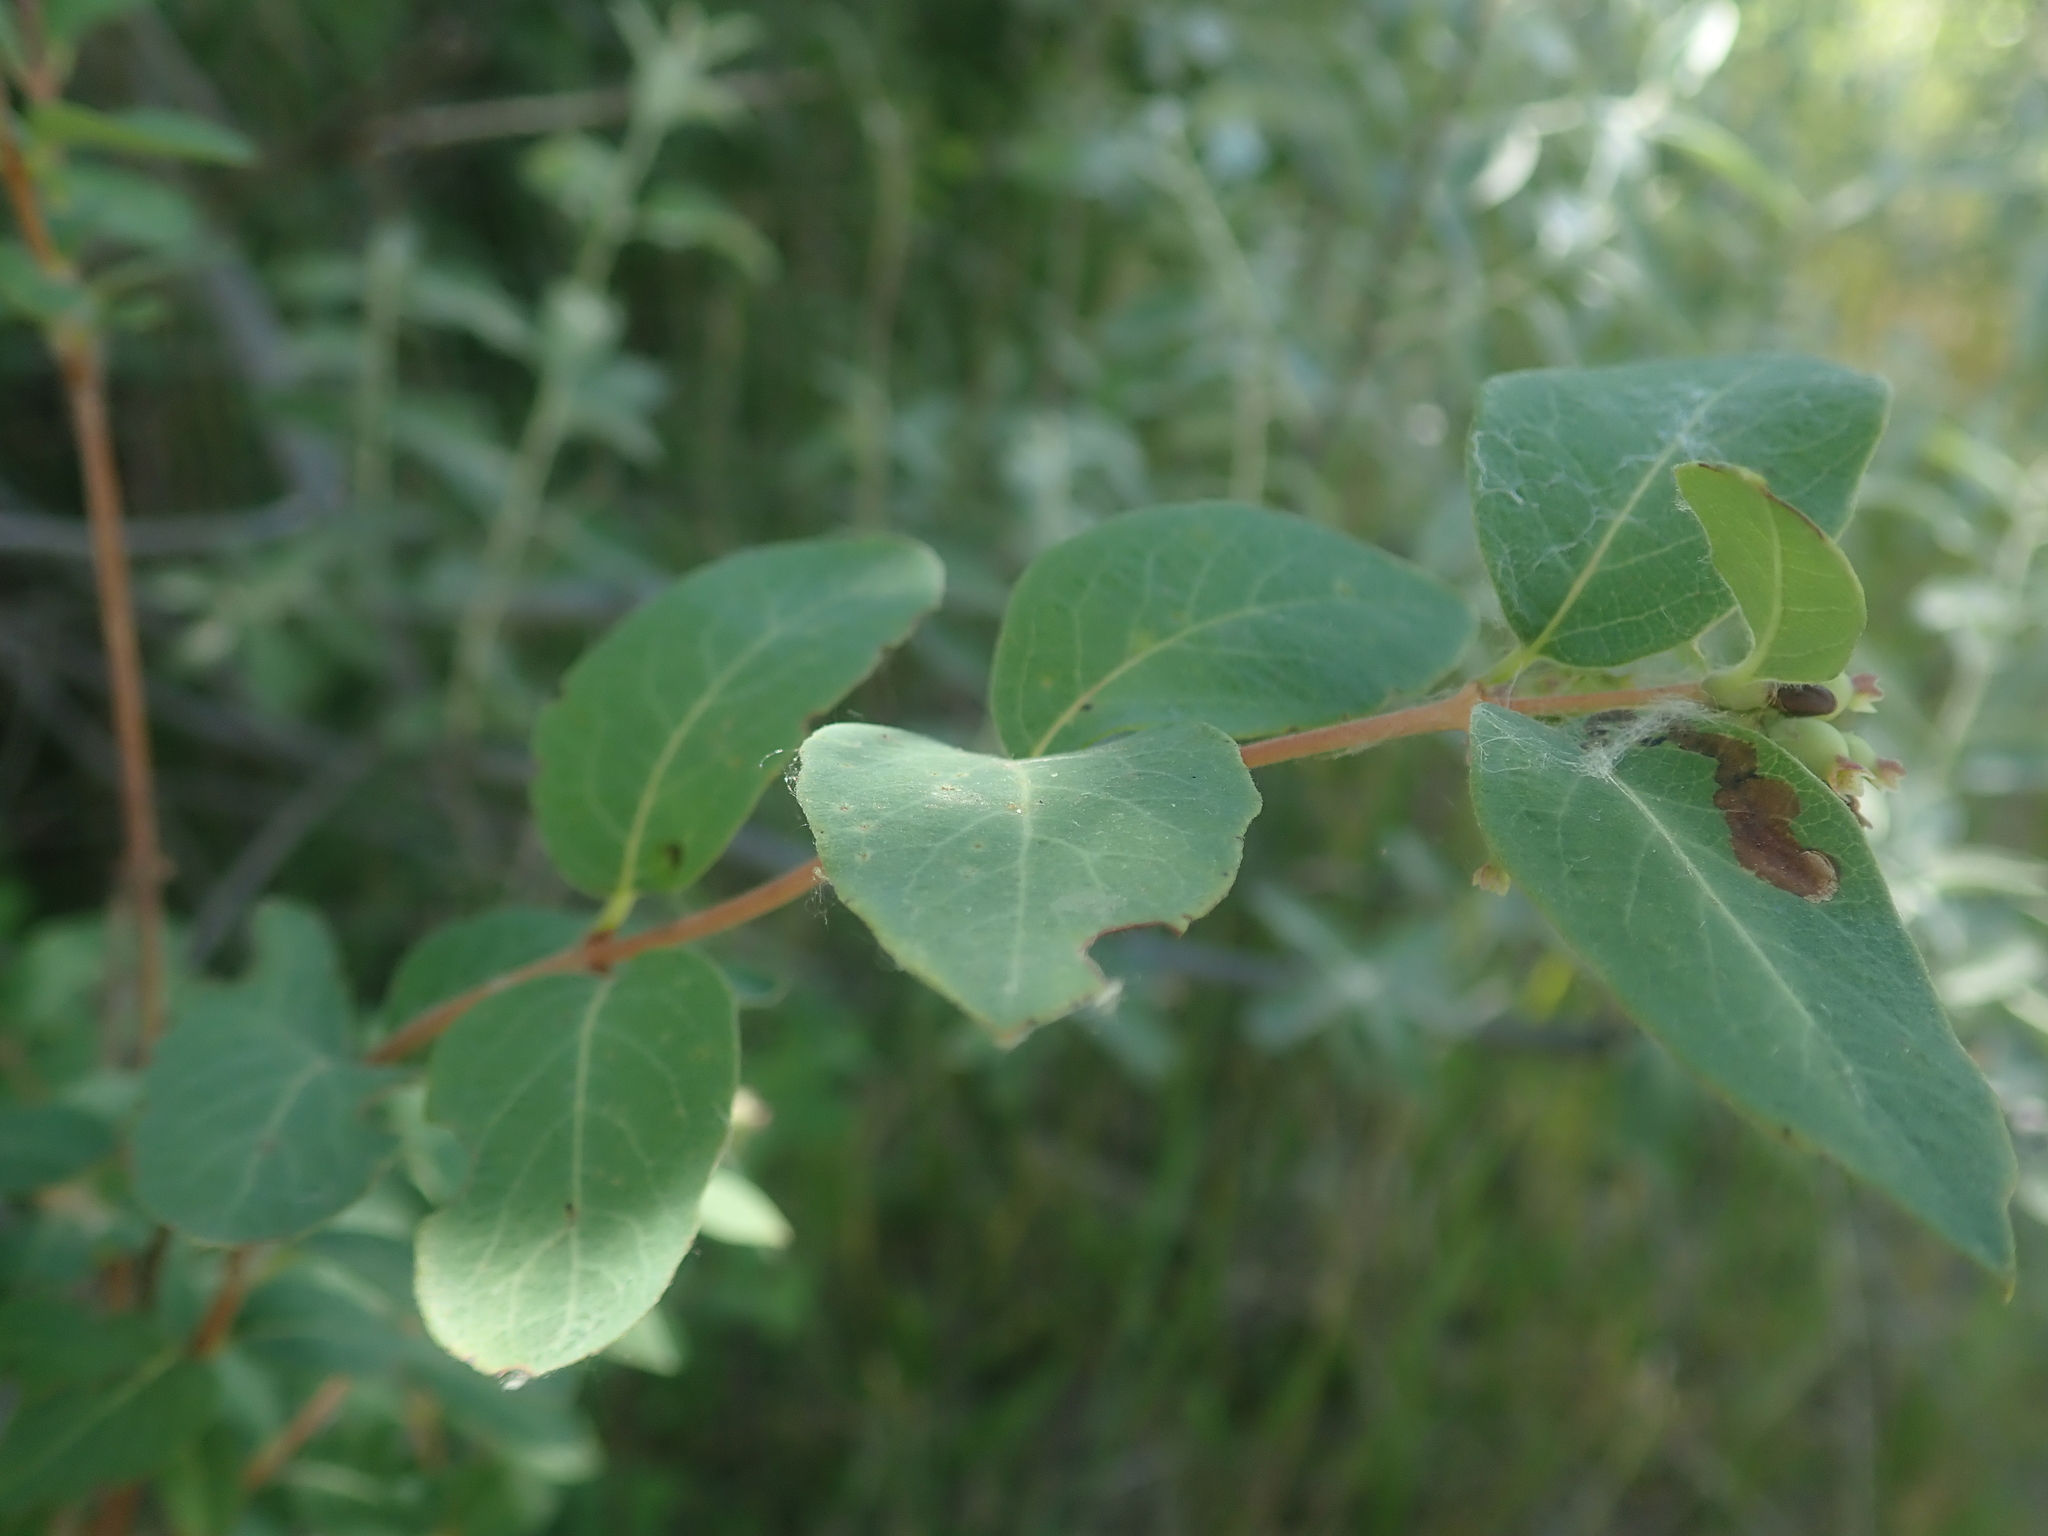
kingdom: Plantae
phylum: Tracheophyta
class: Magnoliopsida
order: Dipsacales
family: Caprifoliaceae
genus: Symphoricarpos
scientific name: Symphoricarpos occidentalis
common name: Wolfberry
